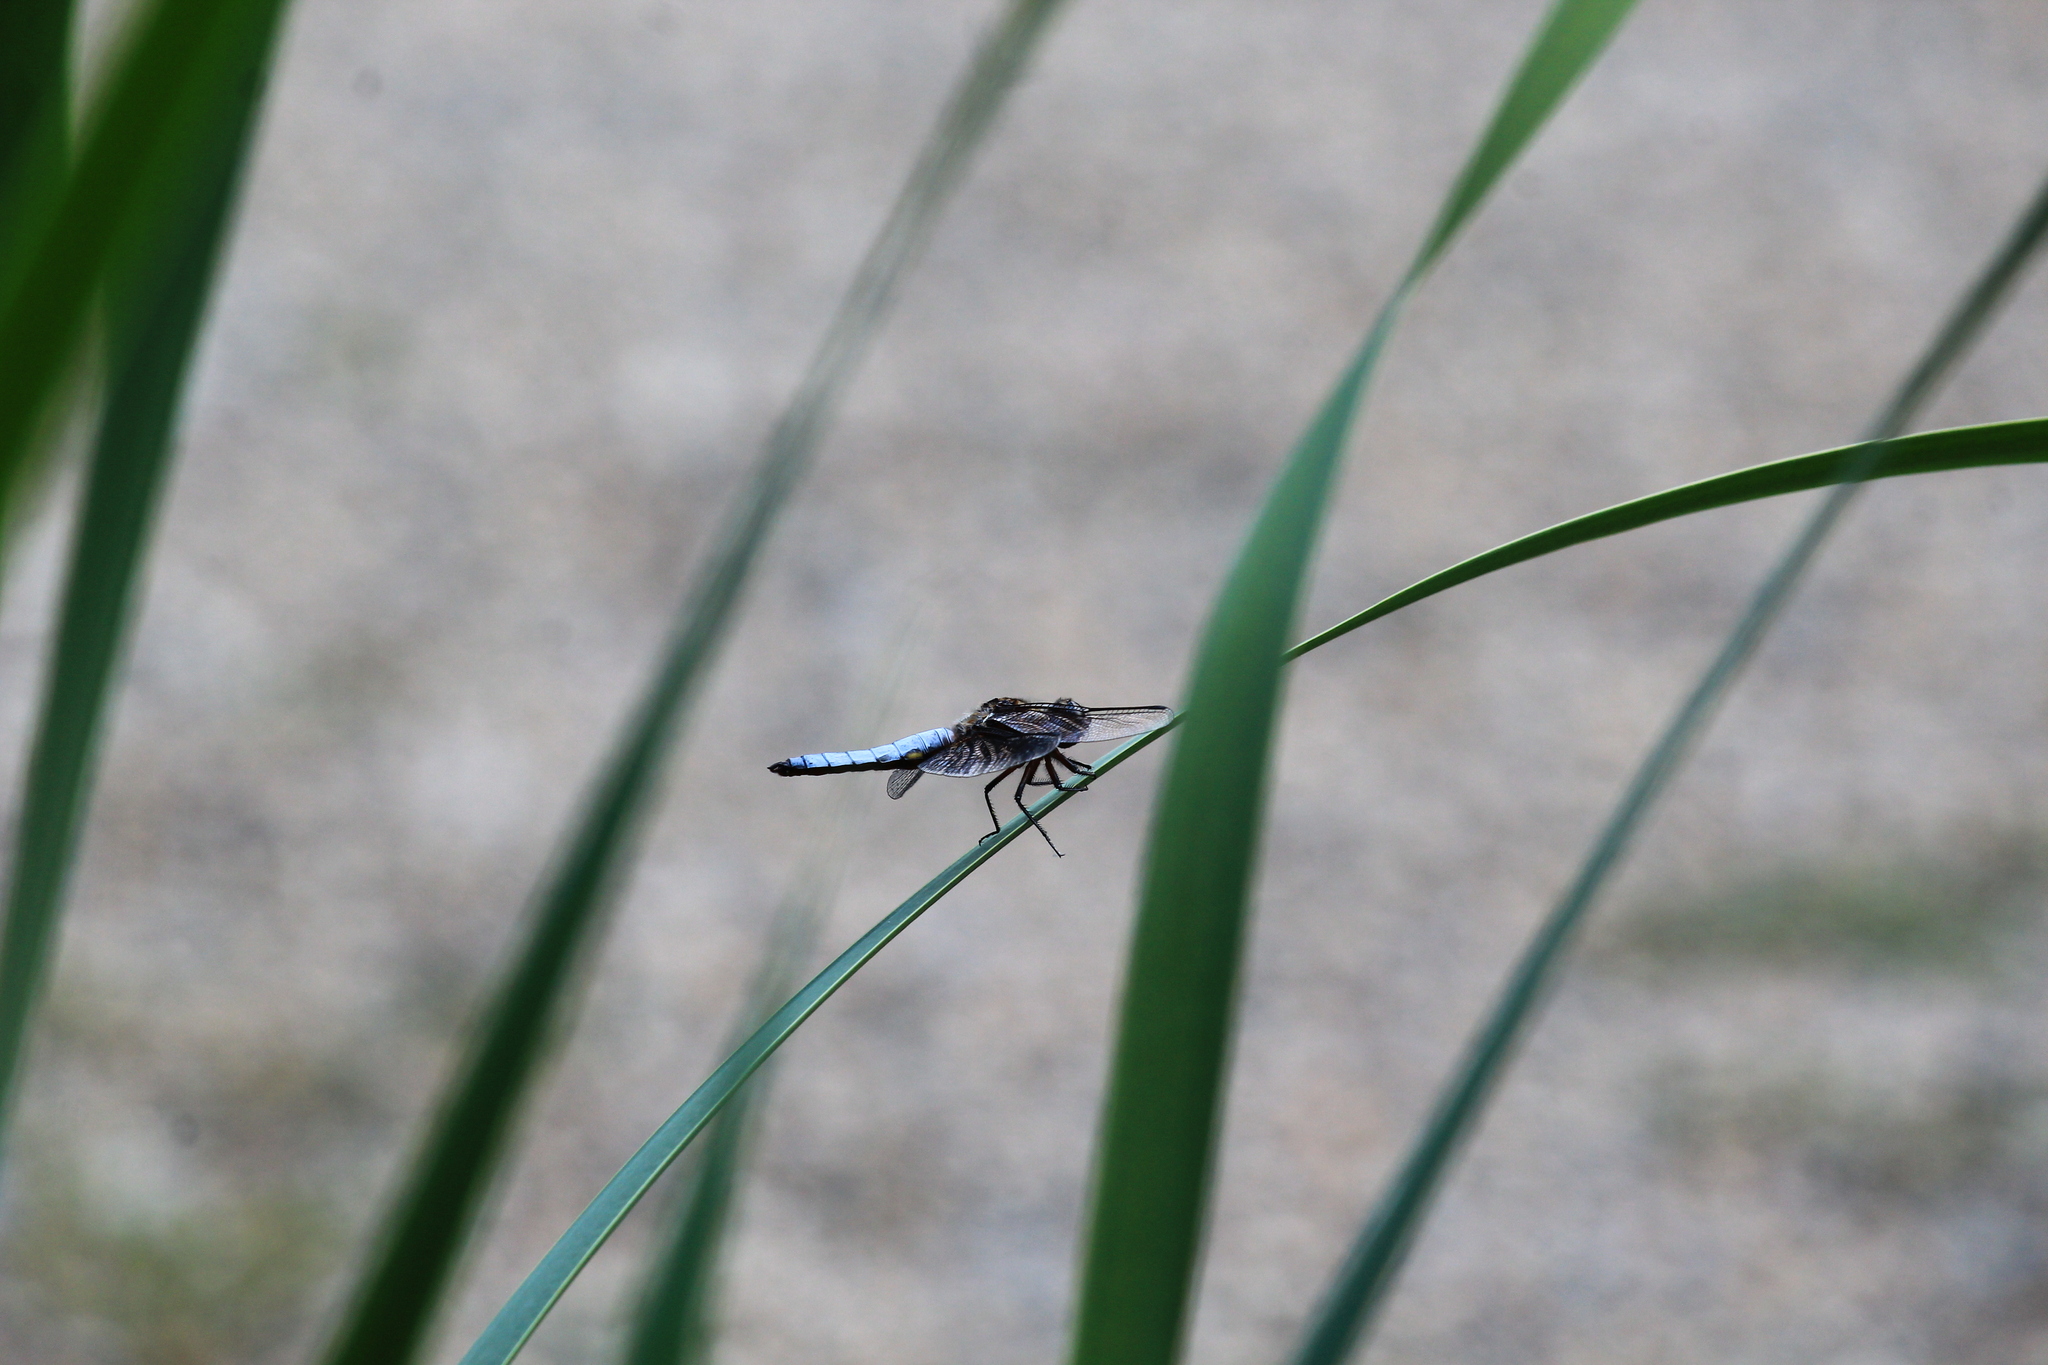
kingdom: Animalia
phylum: Arthropoda
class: Insecta
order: Odonata
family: Libellulidae
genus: Libellula
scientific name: Libellula depressa
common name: Broad-bodied chaser
